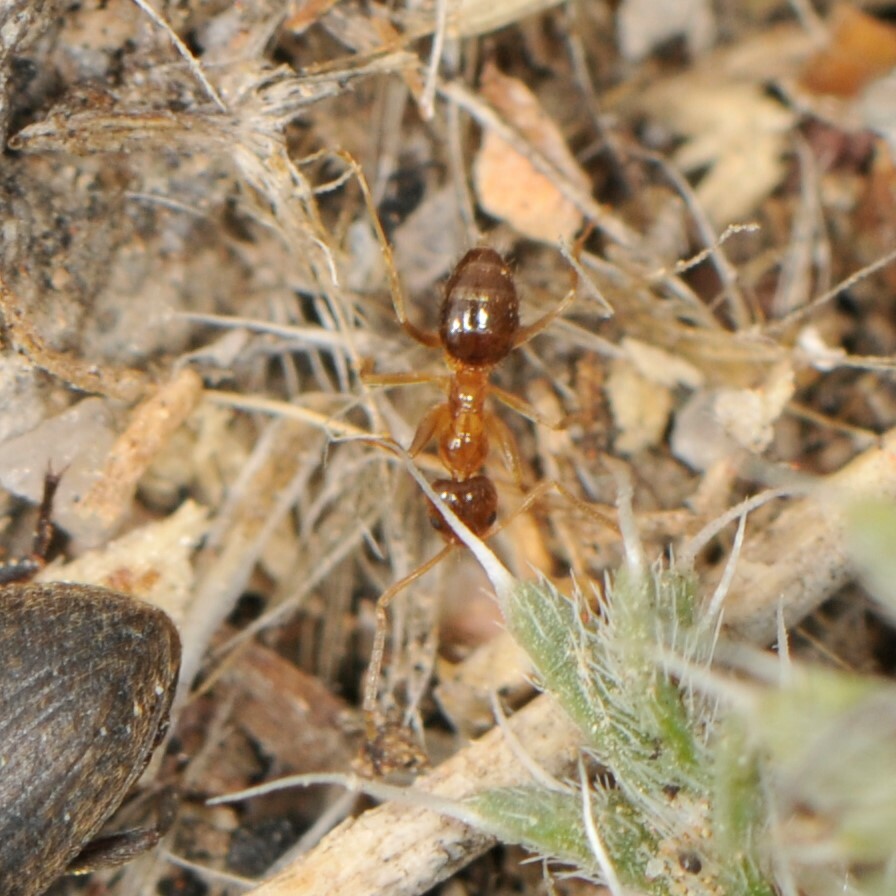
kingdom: Animalia
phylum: Arthropoda
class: Insecta
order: Hymenoptera
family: Formicidae
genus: Nylanderia
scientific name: Nylanderia
